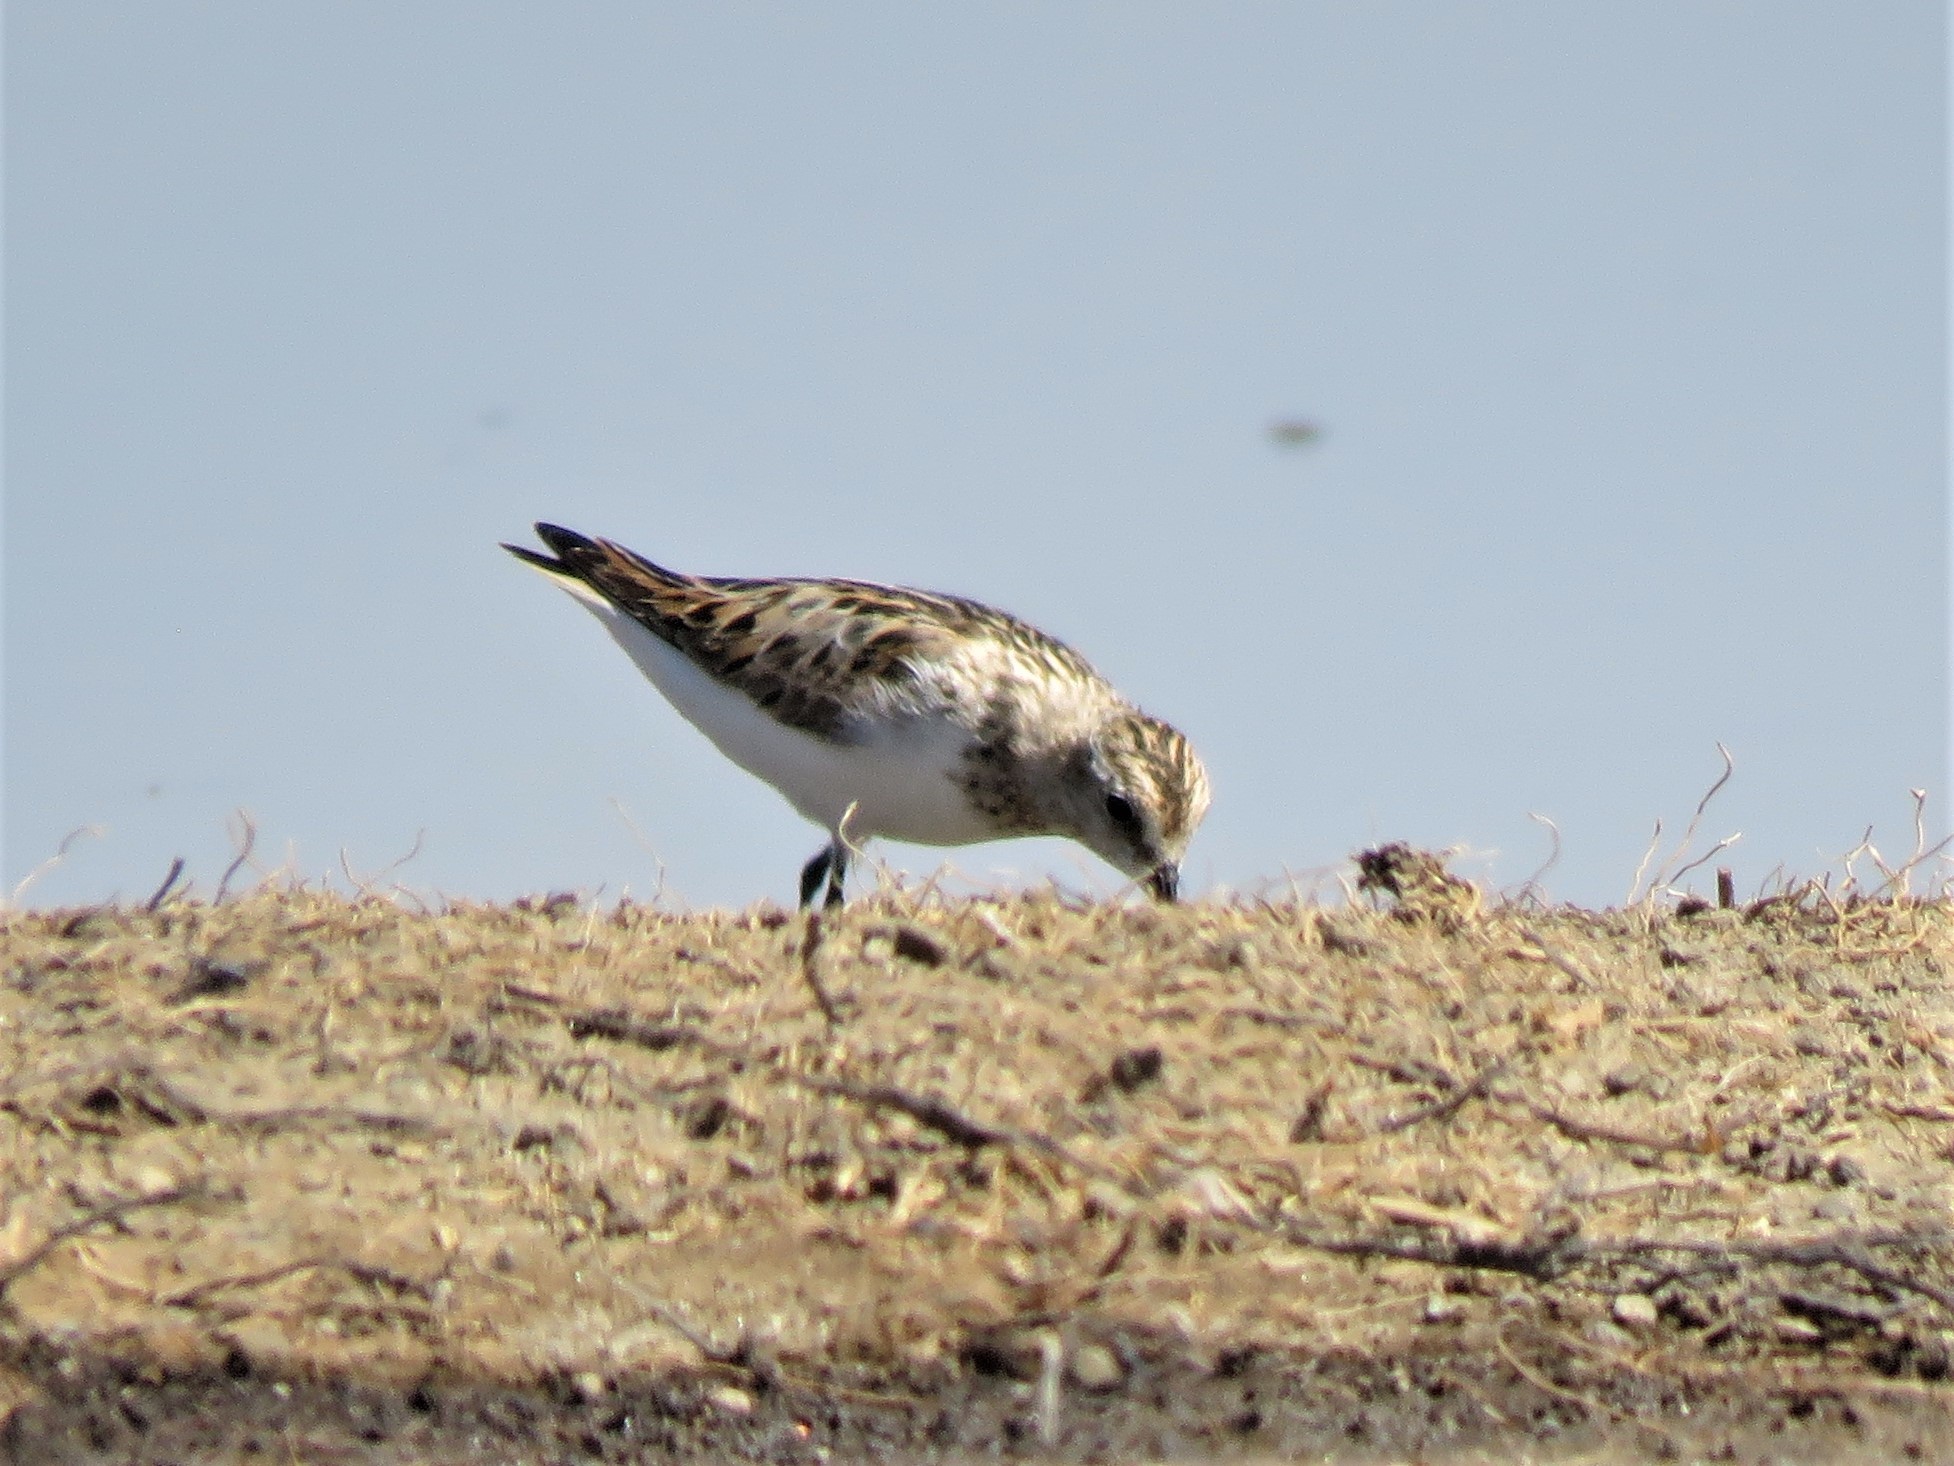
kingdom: Animalia
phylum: Chordata
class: Aves
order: Charadriiformes
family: Scolopacidae
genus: Calidris
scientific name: Calidris minuta
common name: Little stint
